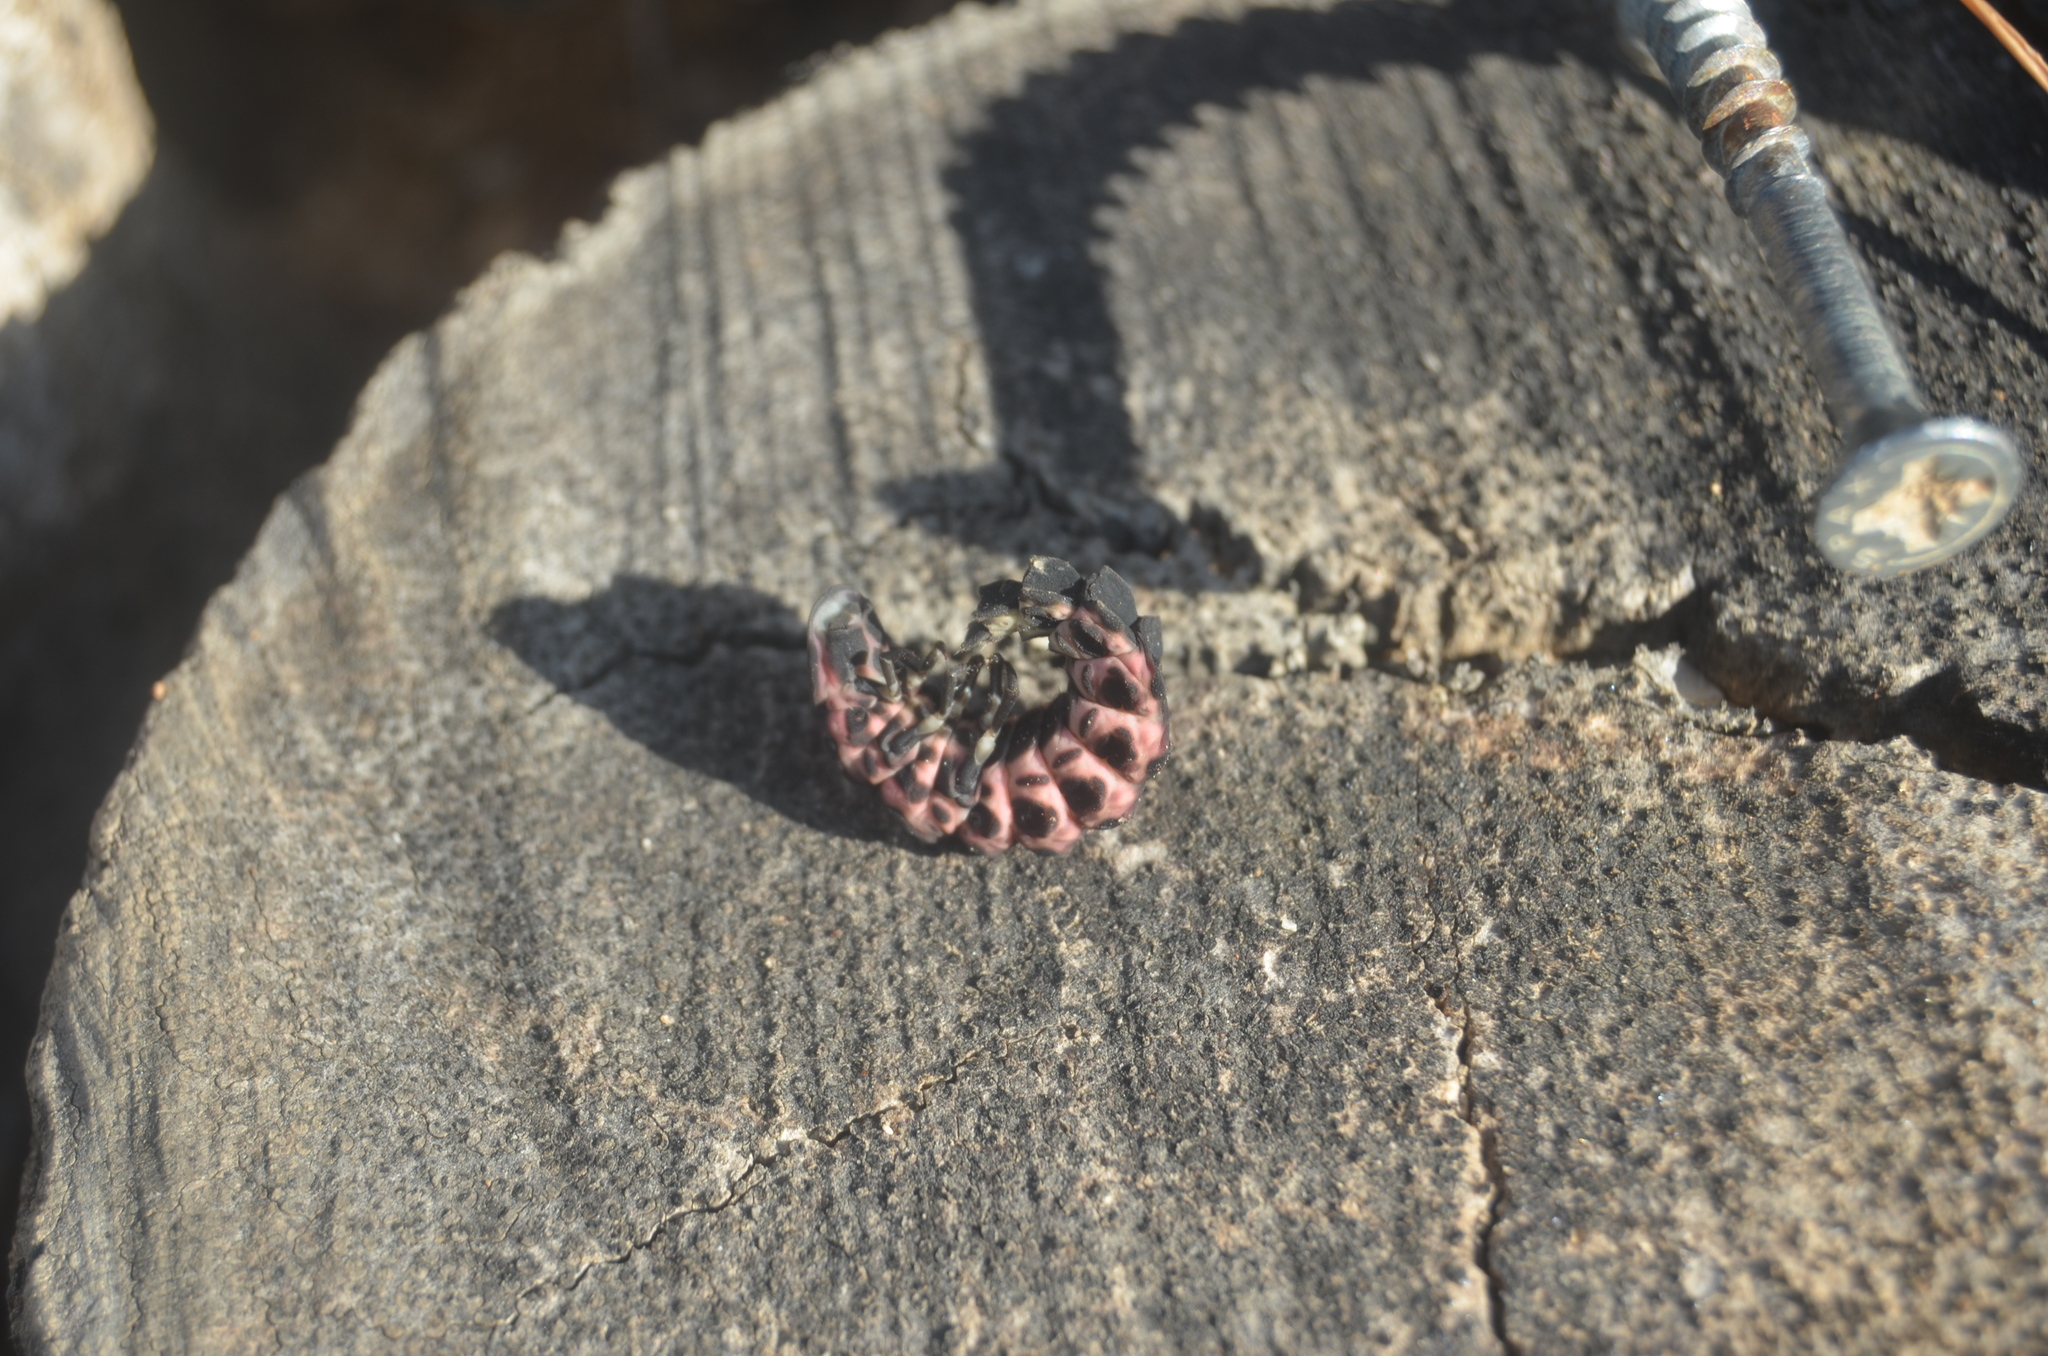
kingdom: Animalia
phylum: Arthropoda
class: Insecta
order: Coleoptera
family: Lampyridae
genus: Nyctophila
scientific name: Nyctophila reichii
